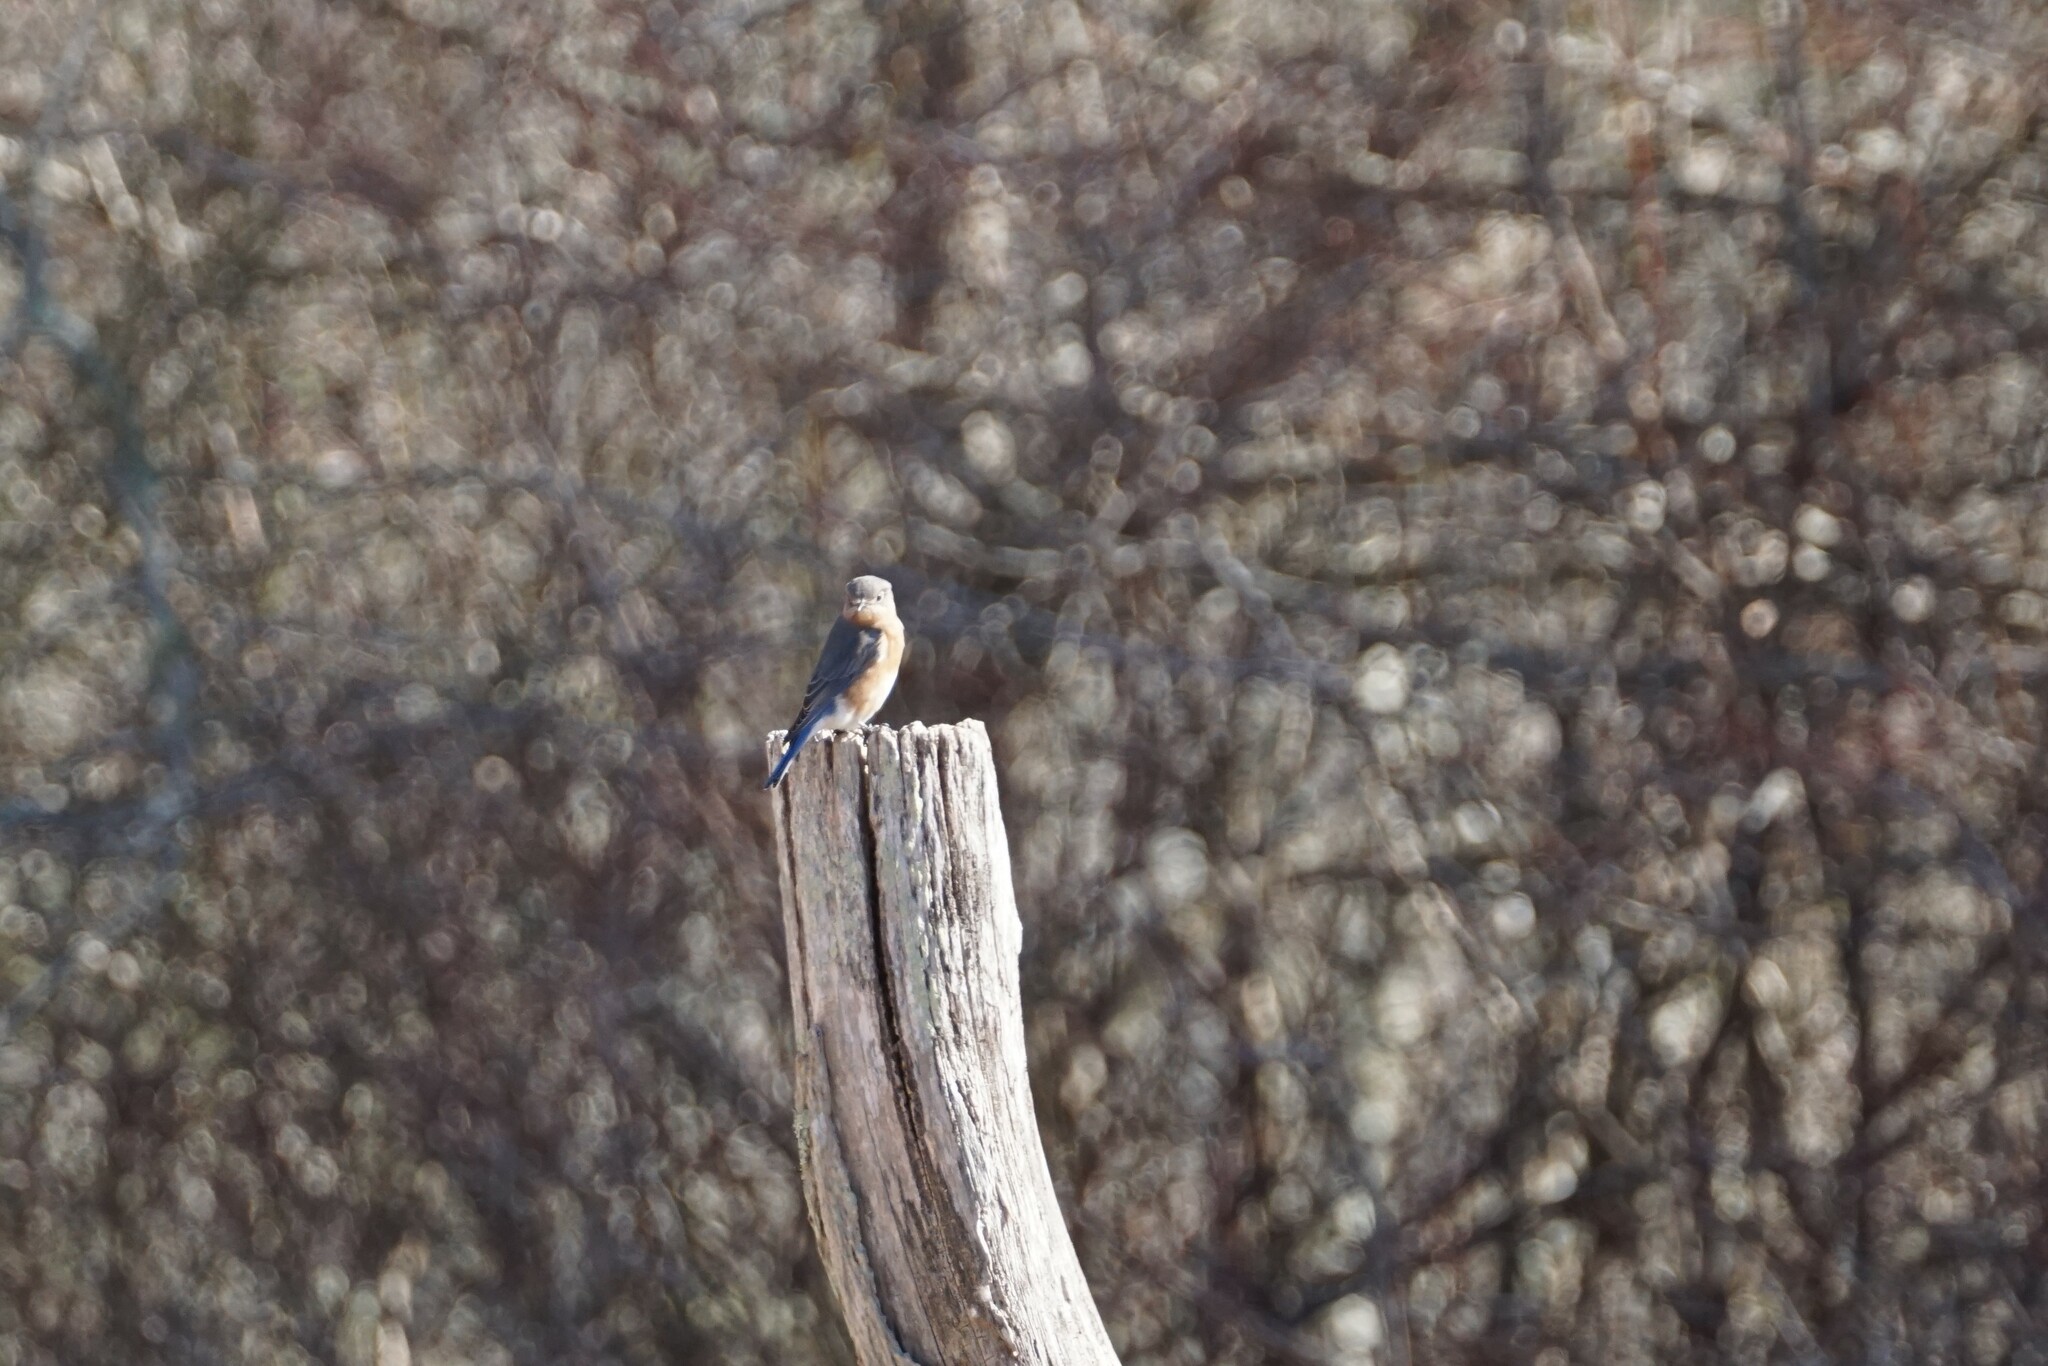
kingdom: Animalia
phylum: Chordata
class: Aves
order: Passeriformes
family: Turdidae
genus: Sialia
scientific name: Sialia sialis
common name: Eastern bluebird
